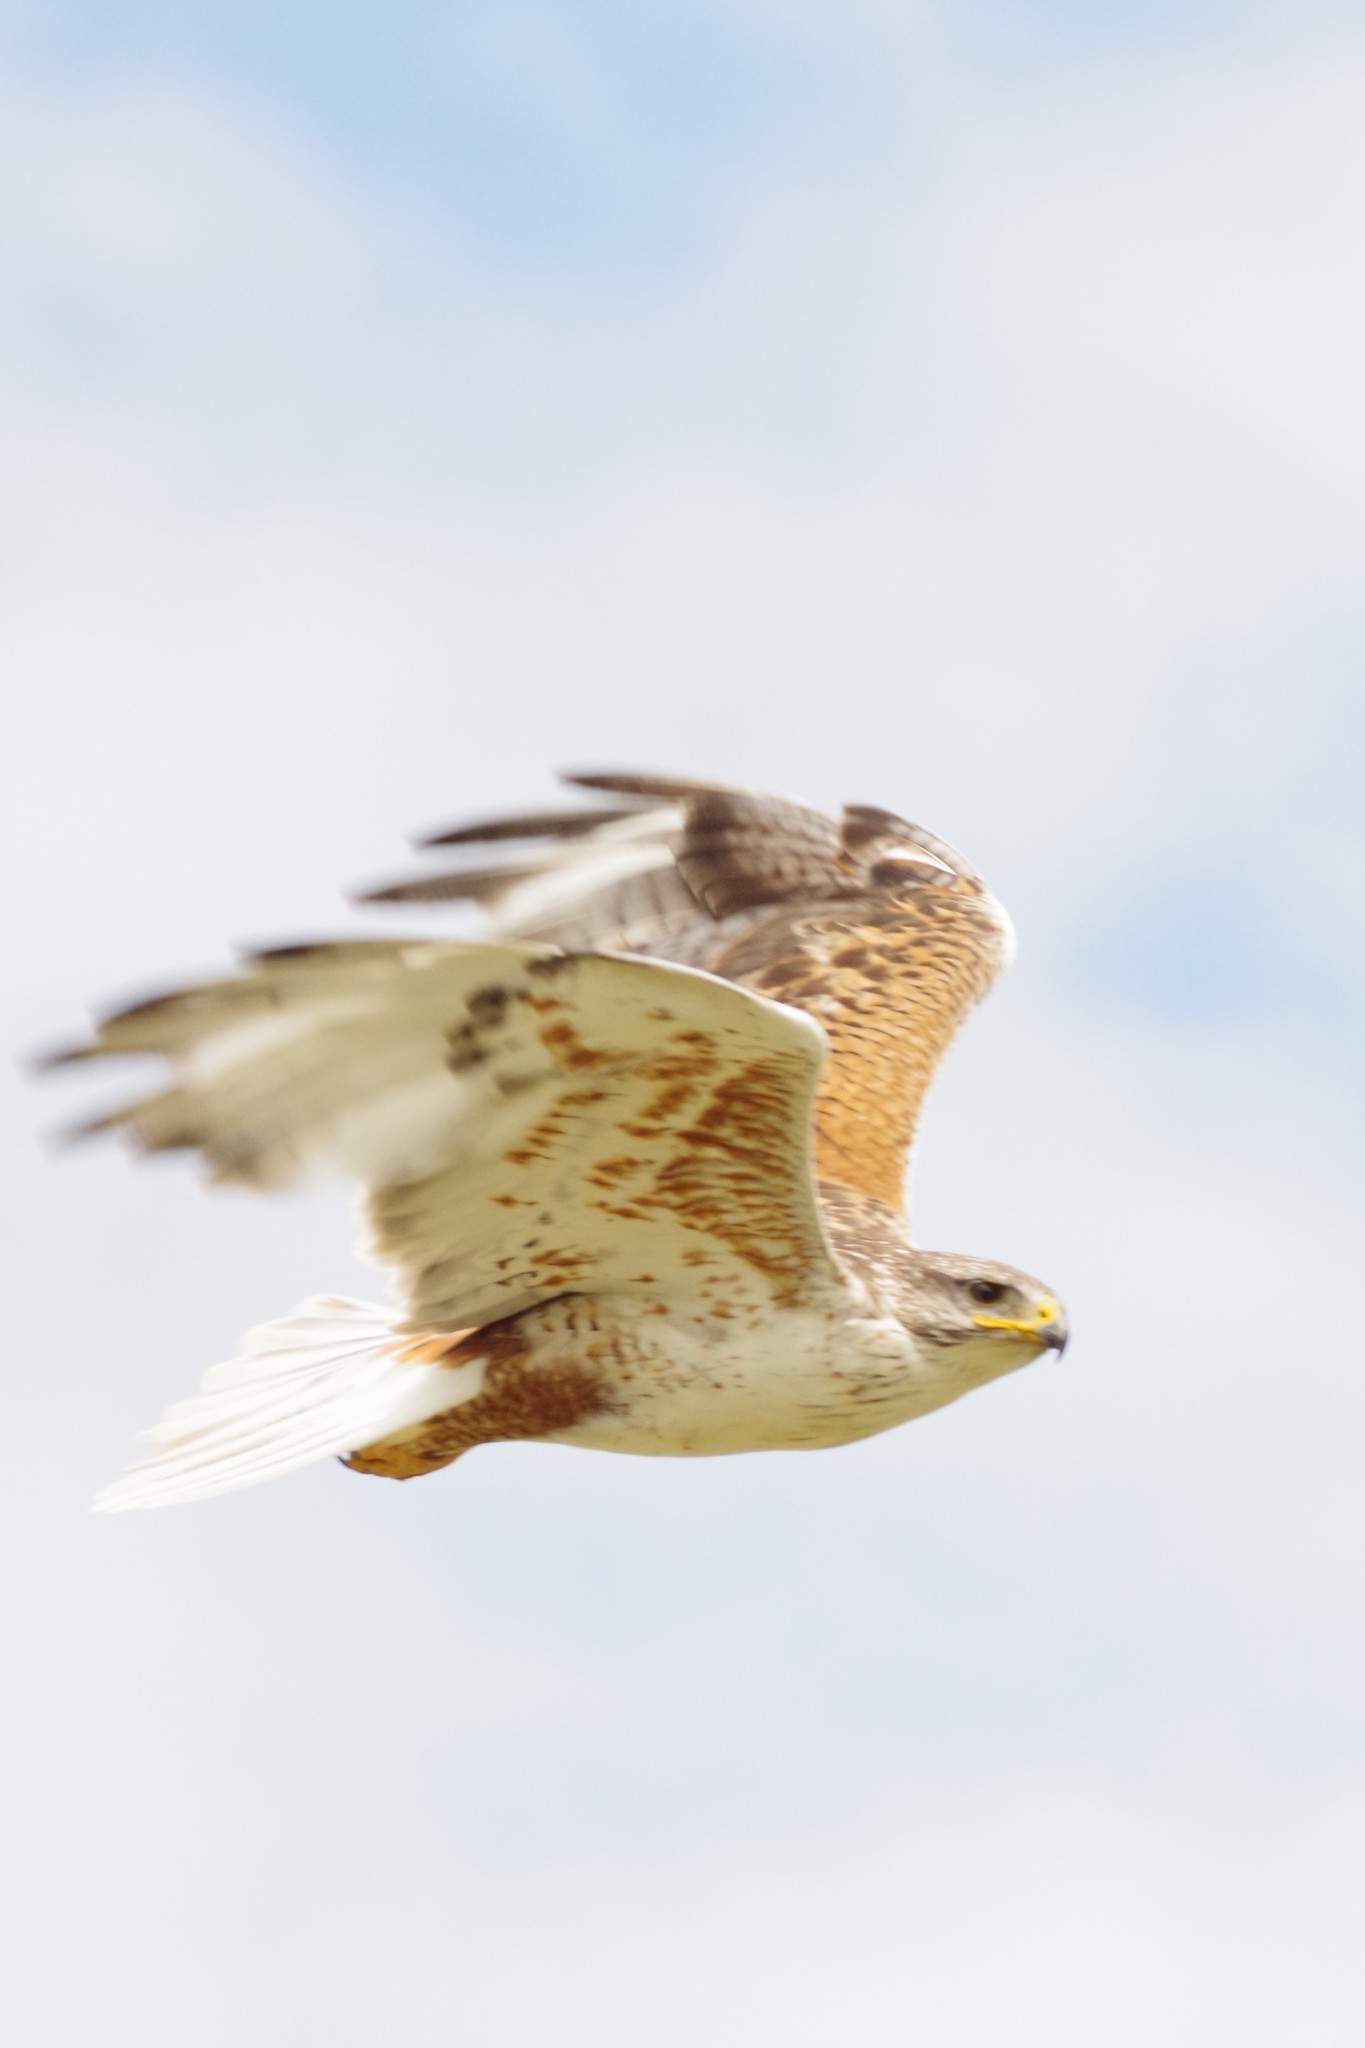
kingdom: Animalia
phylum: Chordata
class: Aves
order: Accipitriformes
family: Accipitridae
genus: Buteo
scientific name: Buteo regalis
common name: Ferruginous hawk
